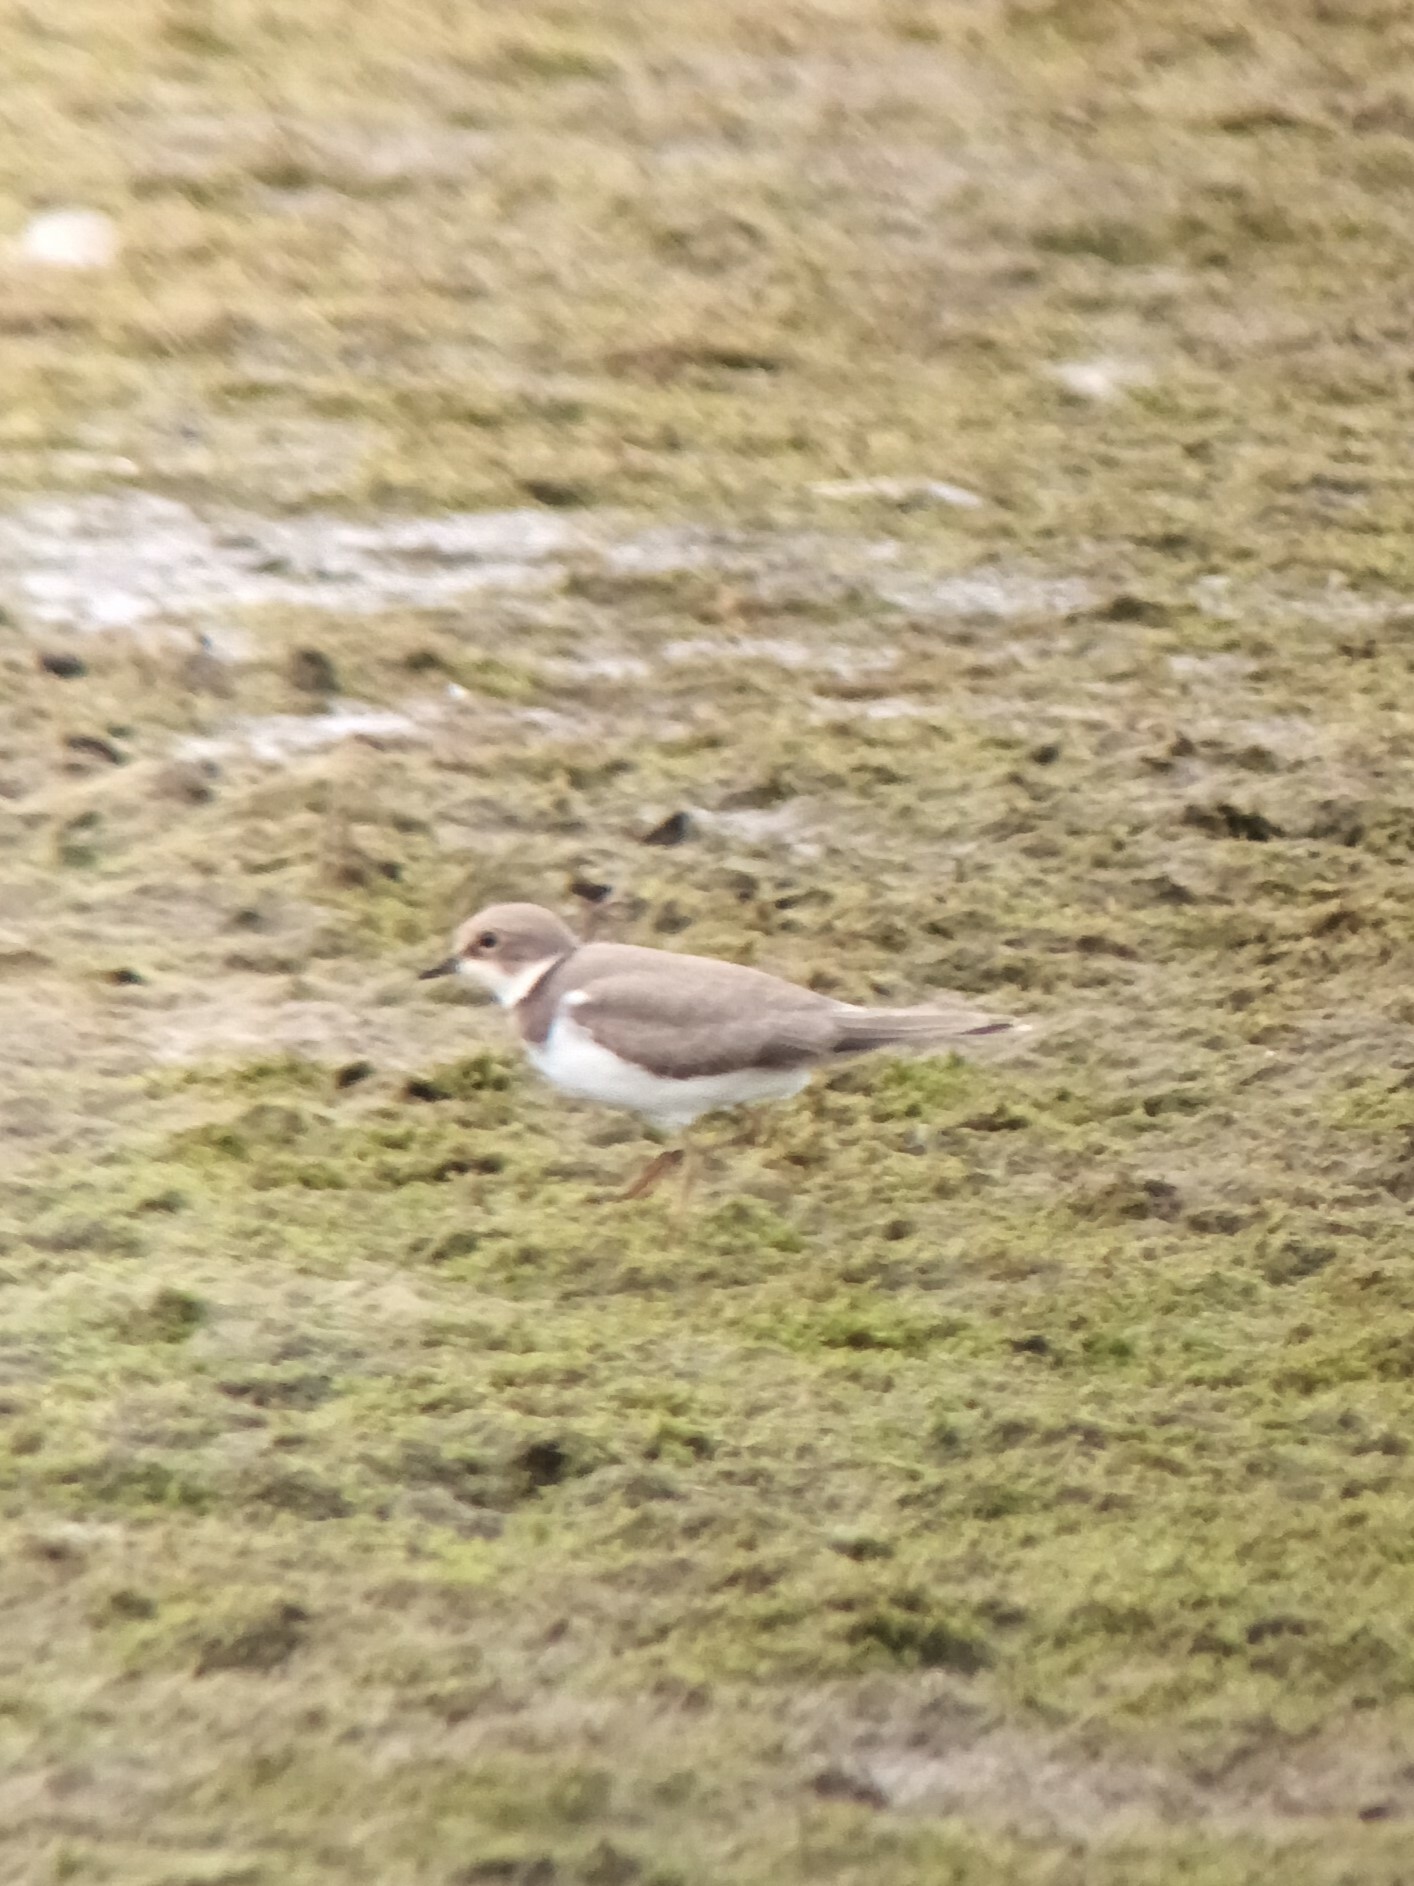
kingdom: Animalia
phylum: Chordata
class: Aves
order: Charadriiformes
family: Charadriidae
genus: Charadrius
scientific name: Charadrius dubius
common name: Little ringed plover
